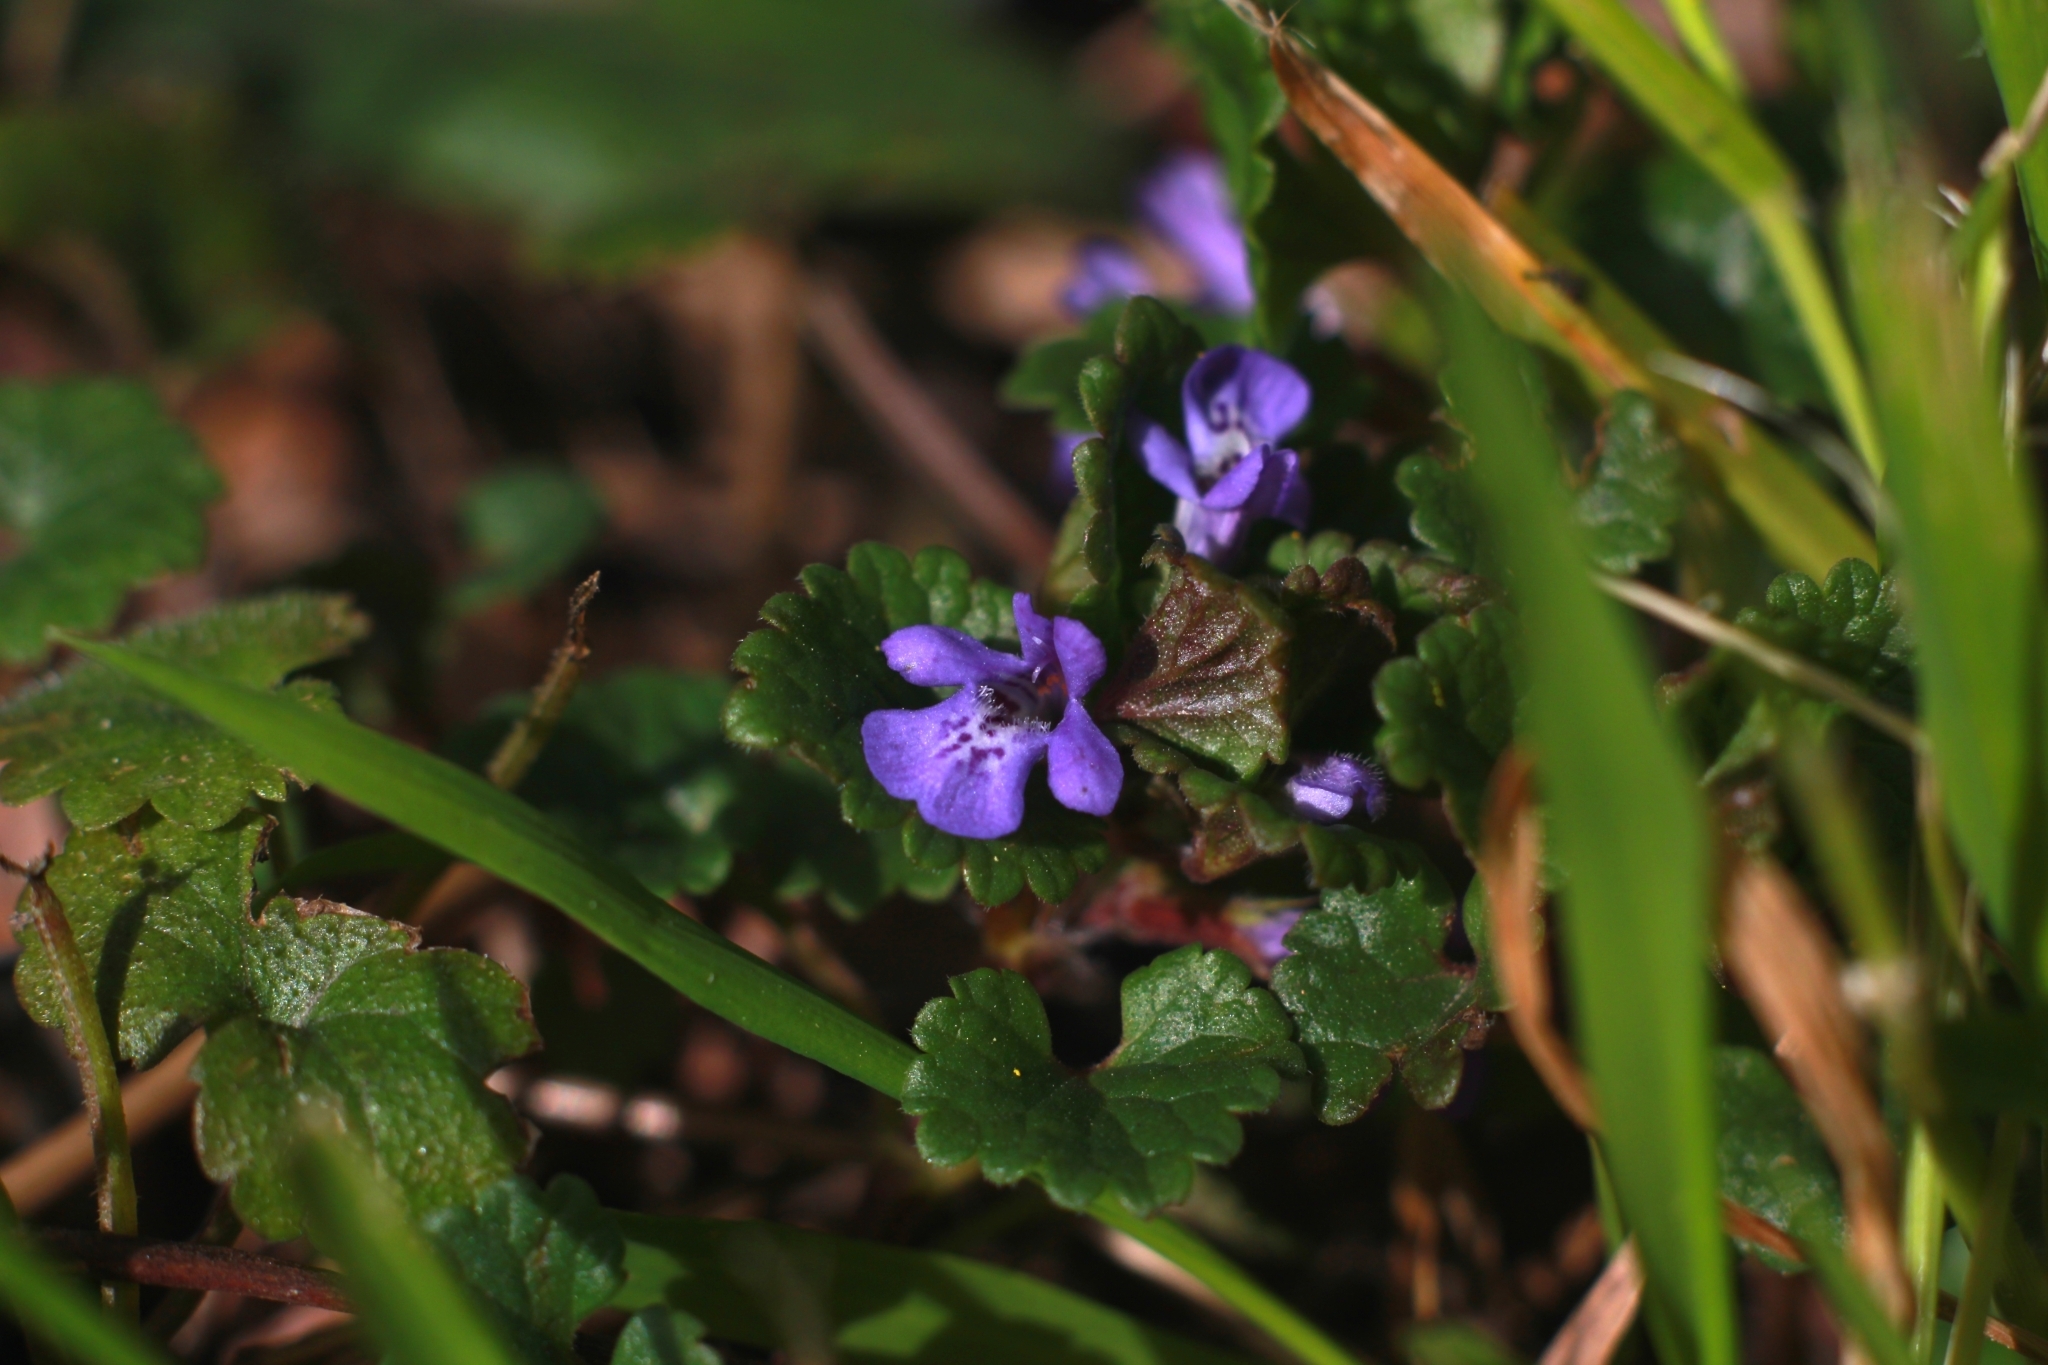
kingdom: Plantae
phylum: Tracheophyta
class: Magnoliopsida
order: Lamiales
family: Lamiaceae
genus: Glechoma
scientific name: Glechoma hederacea
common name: Ground ivy
